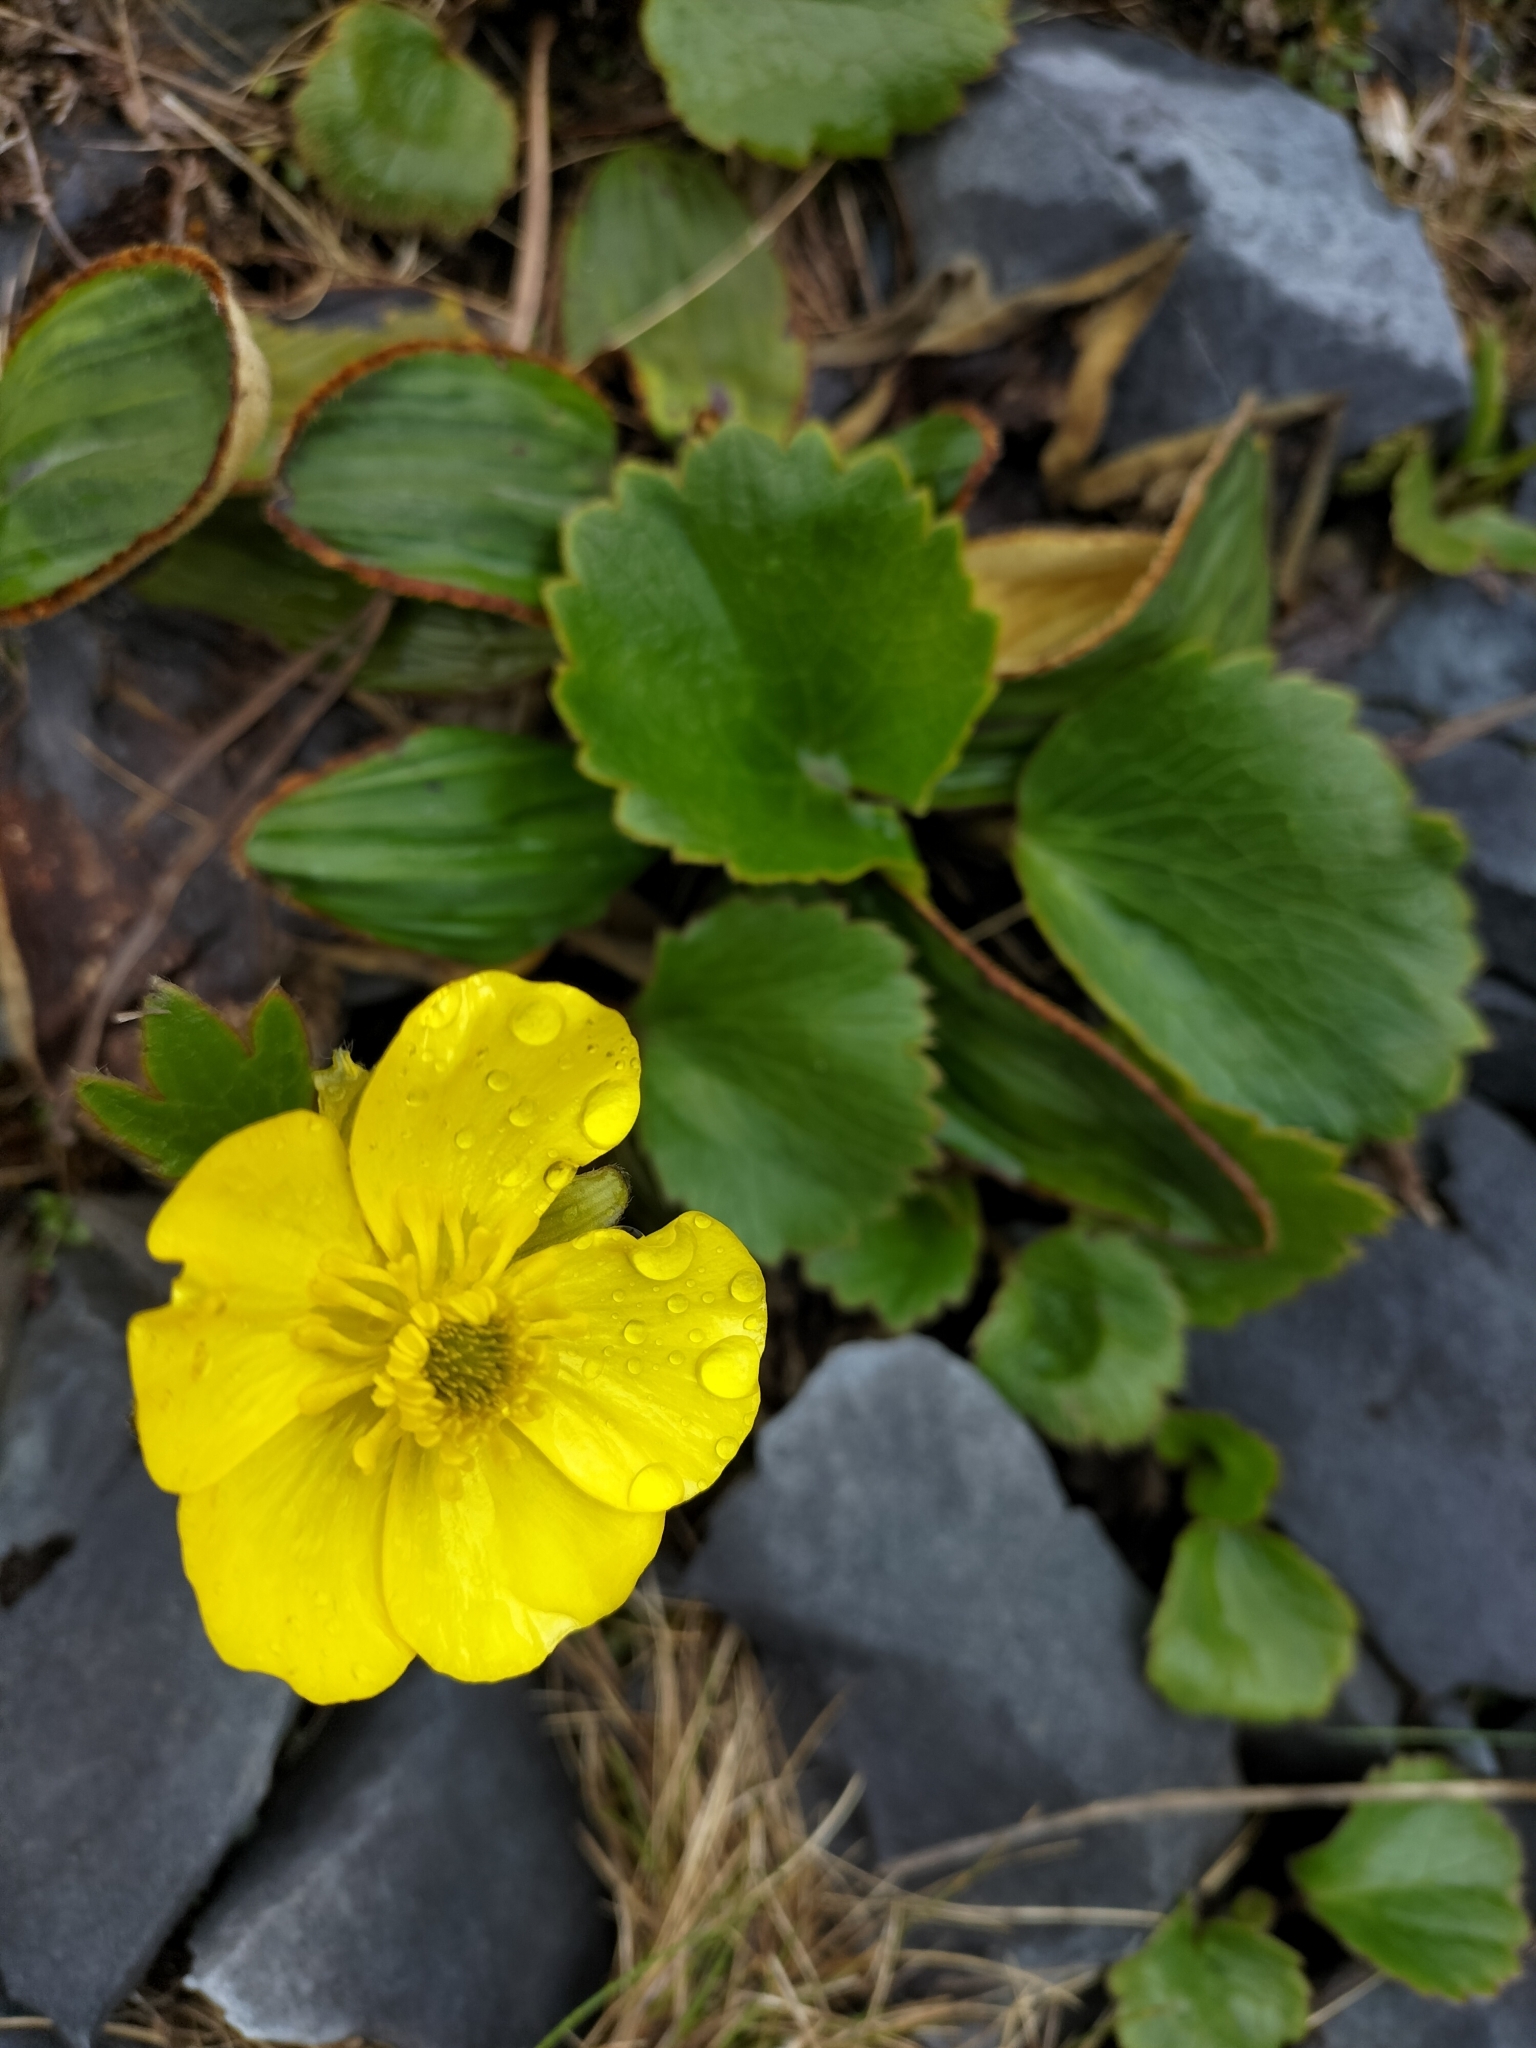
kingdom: Plantae
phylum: Tracheophyta
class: Magnoliopsida
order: Ranunculales
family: Ranunculaceae
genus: Ranunculus
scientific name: Ranunculus insignis
